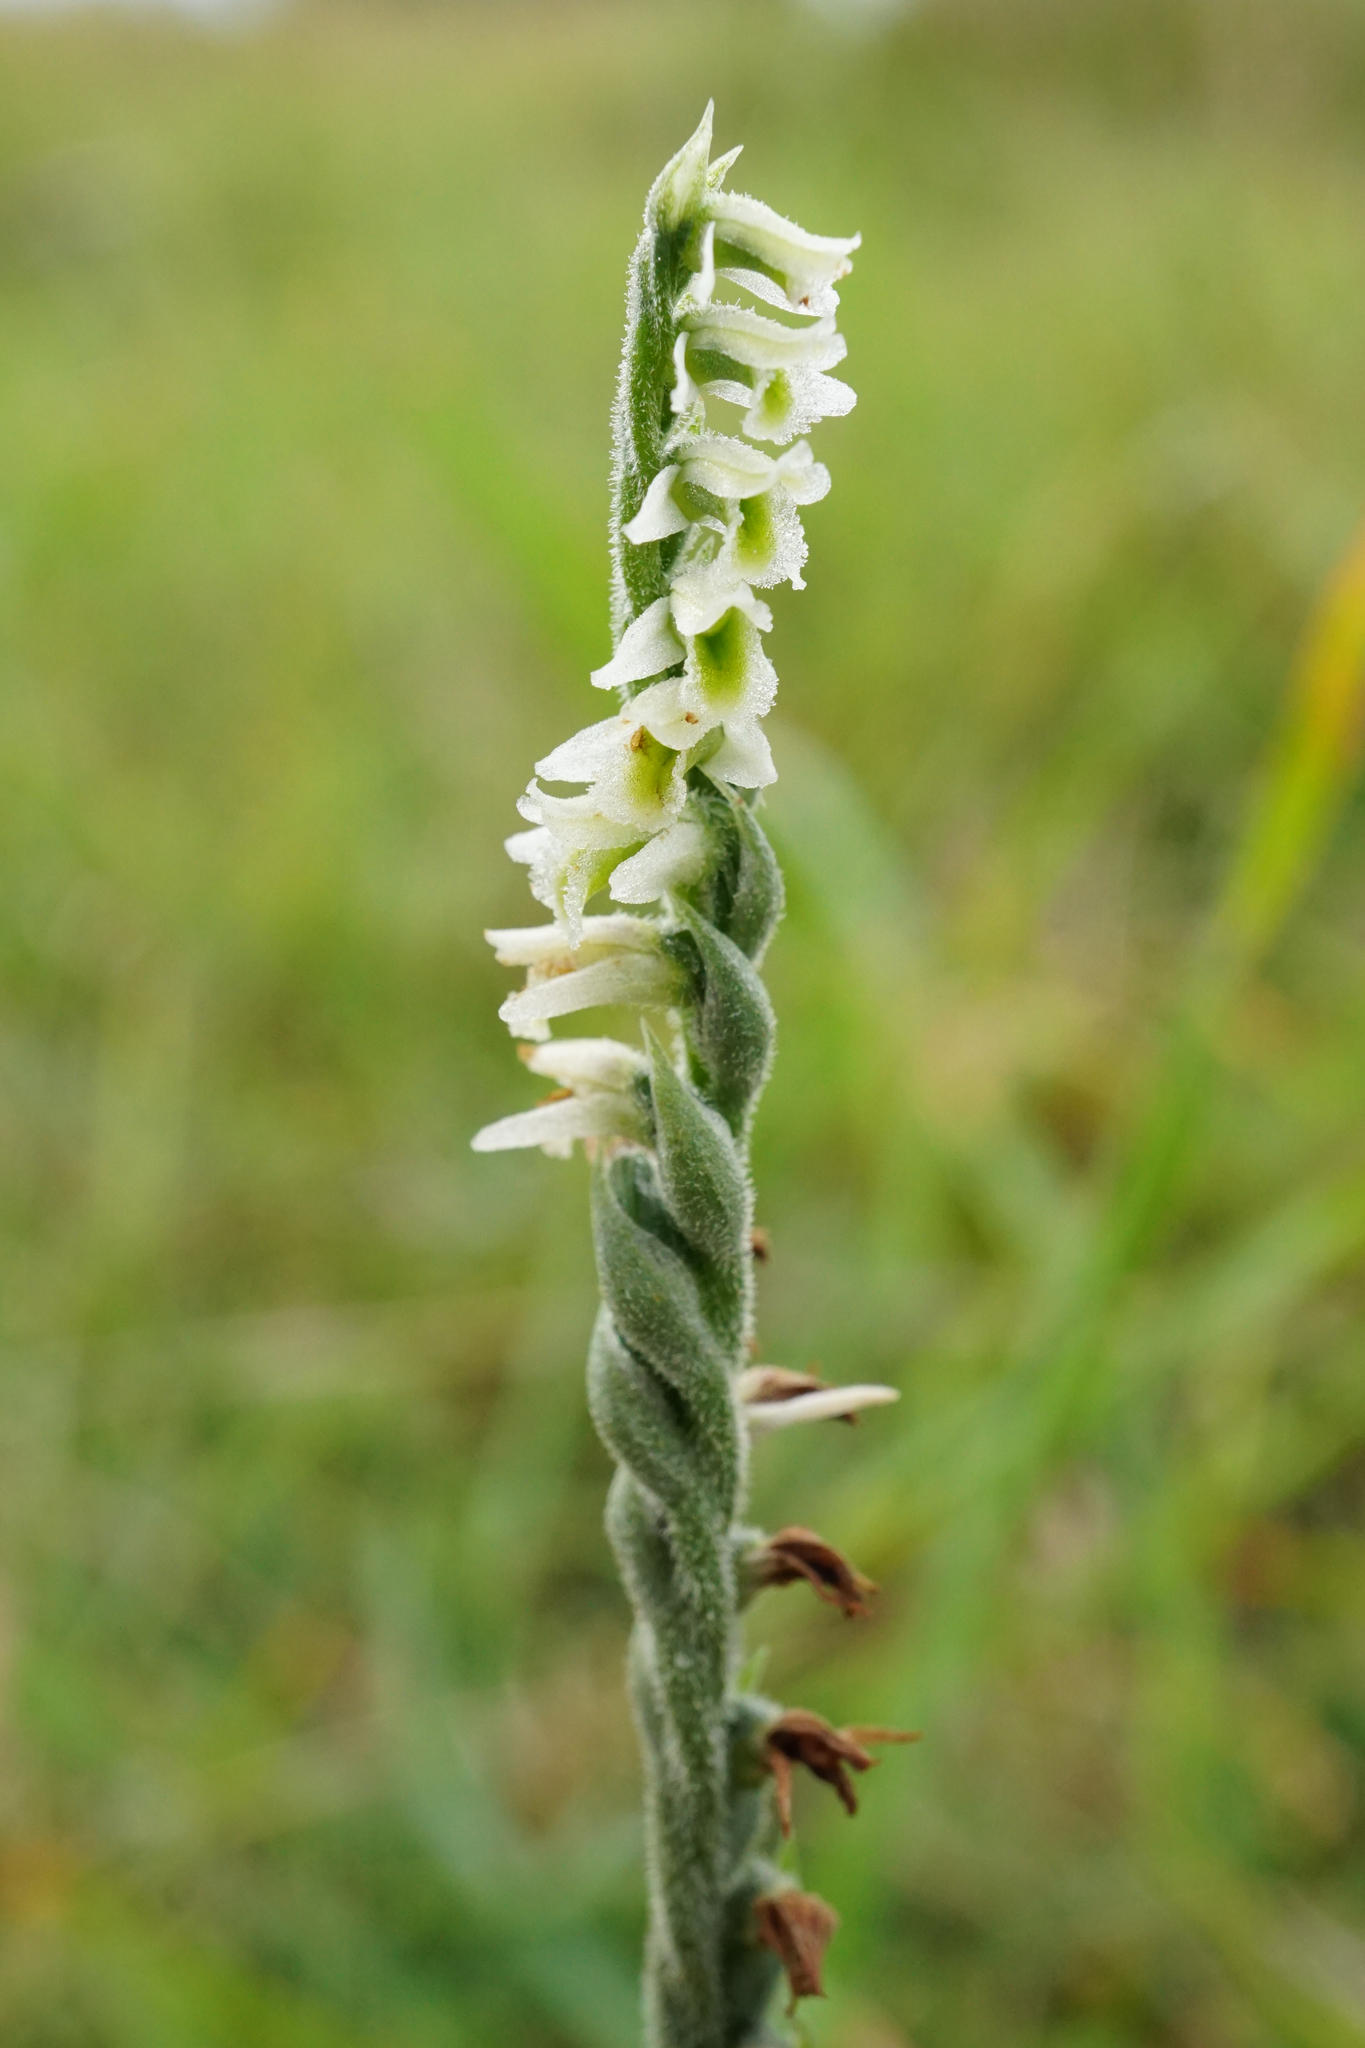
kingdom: Plantae
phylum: Tracheophyta
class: Liliopsida
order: Asparagales
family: Orchidaceae
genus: Spiranthes
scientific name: Spiranthes spiralis
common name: Autumn lady's-tresses
